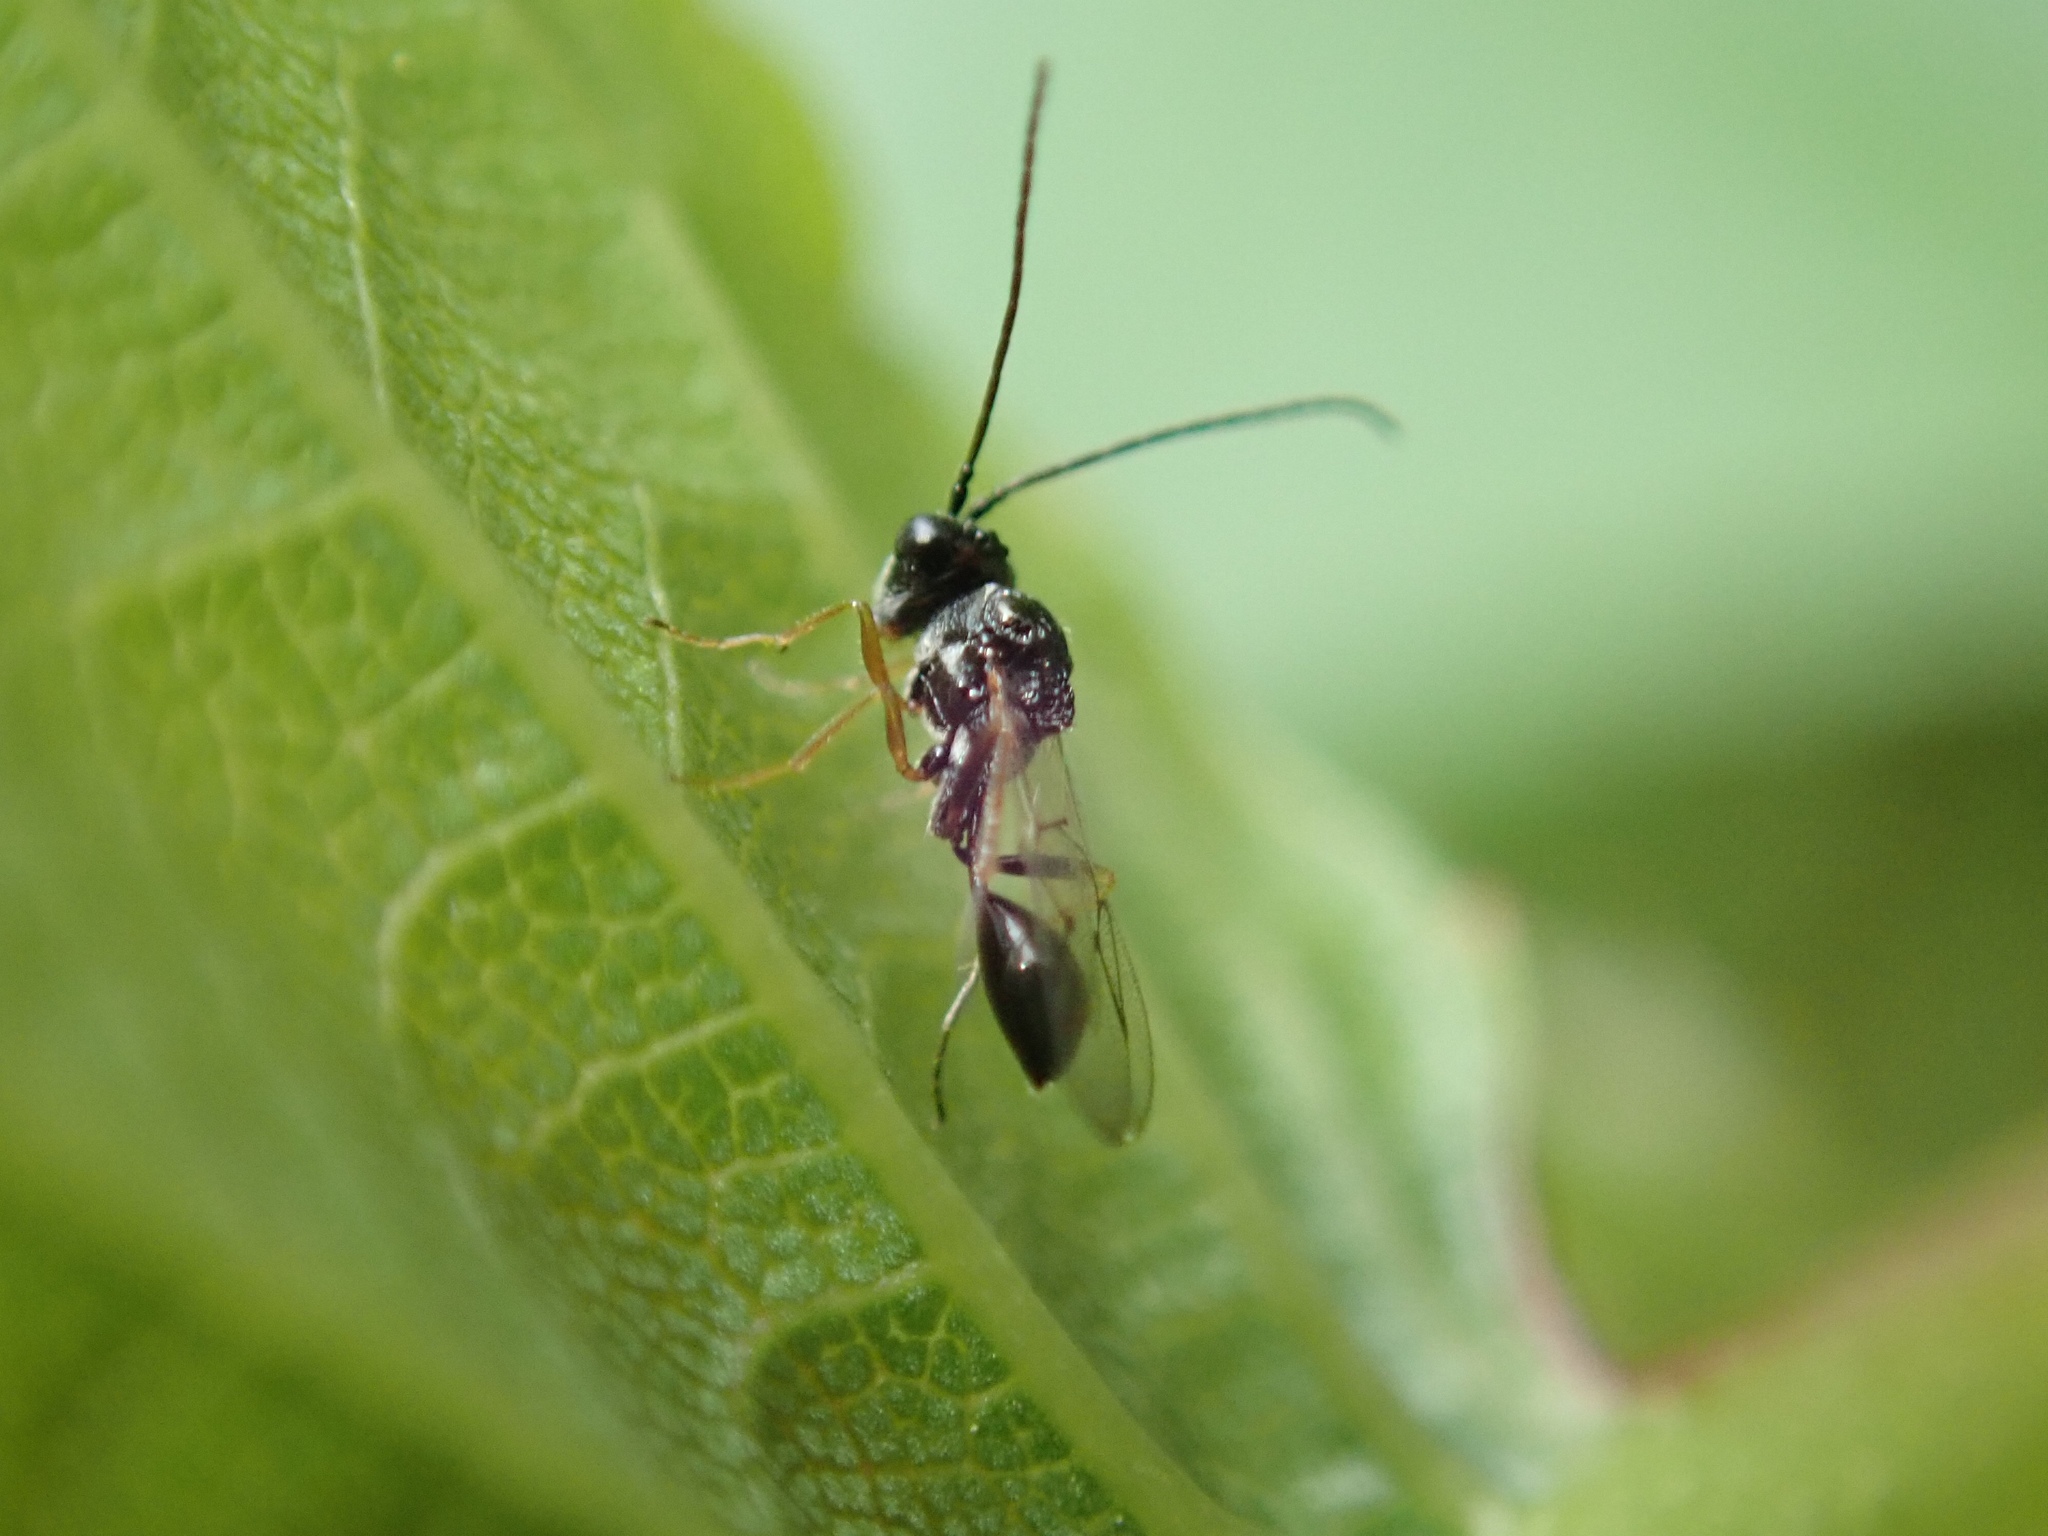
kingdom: Animalia
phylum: Arthropoda
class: Insecta
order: Hymenoptera
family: Figitidae
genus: Anacharis
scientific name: Anacharis zealandica
